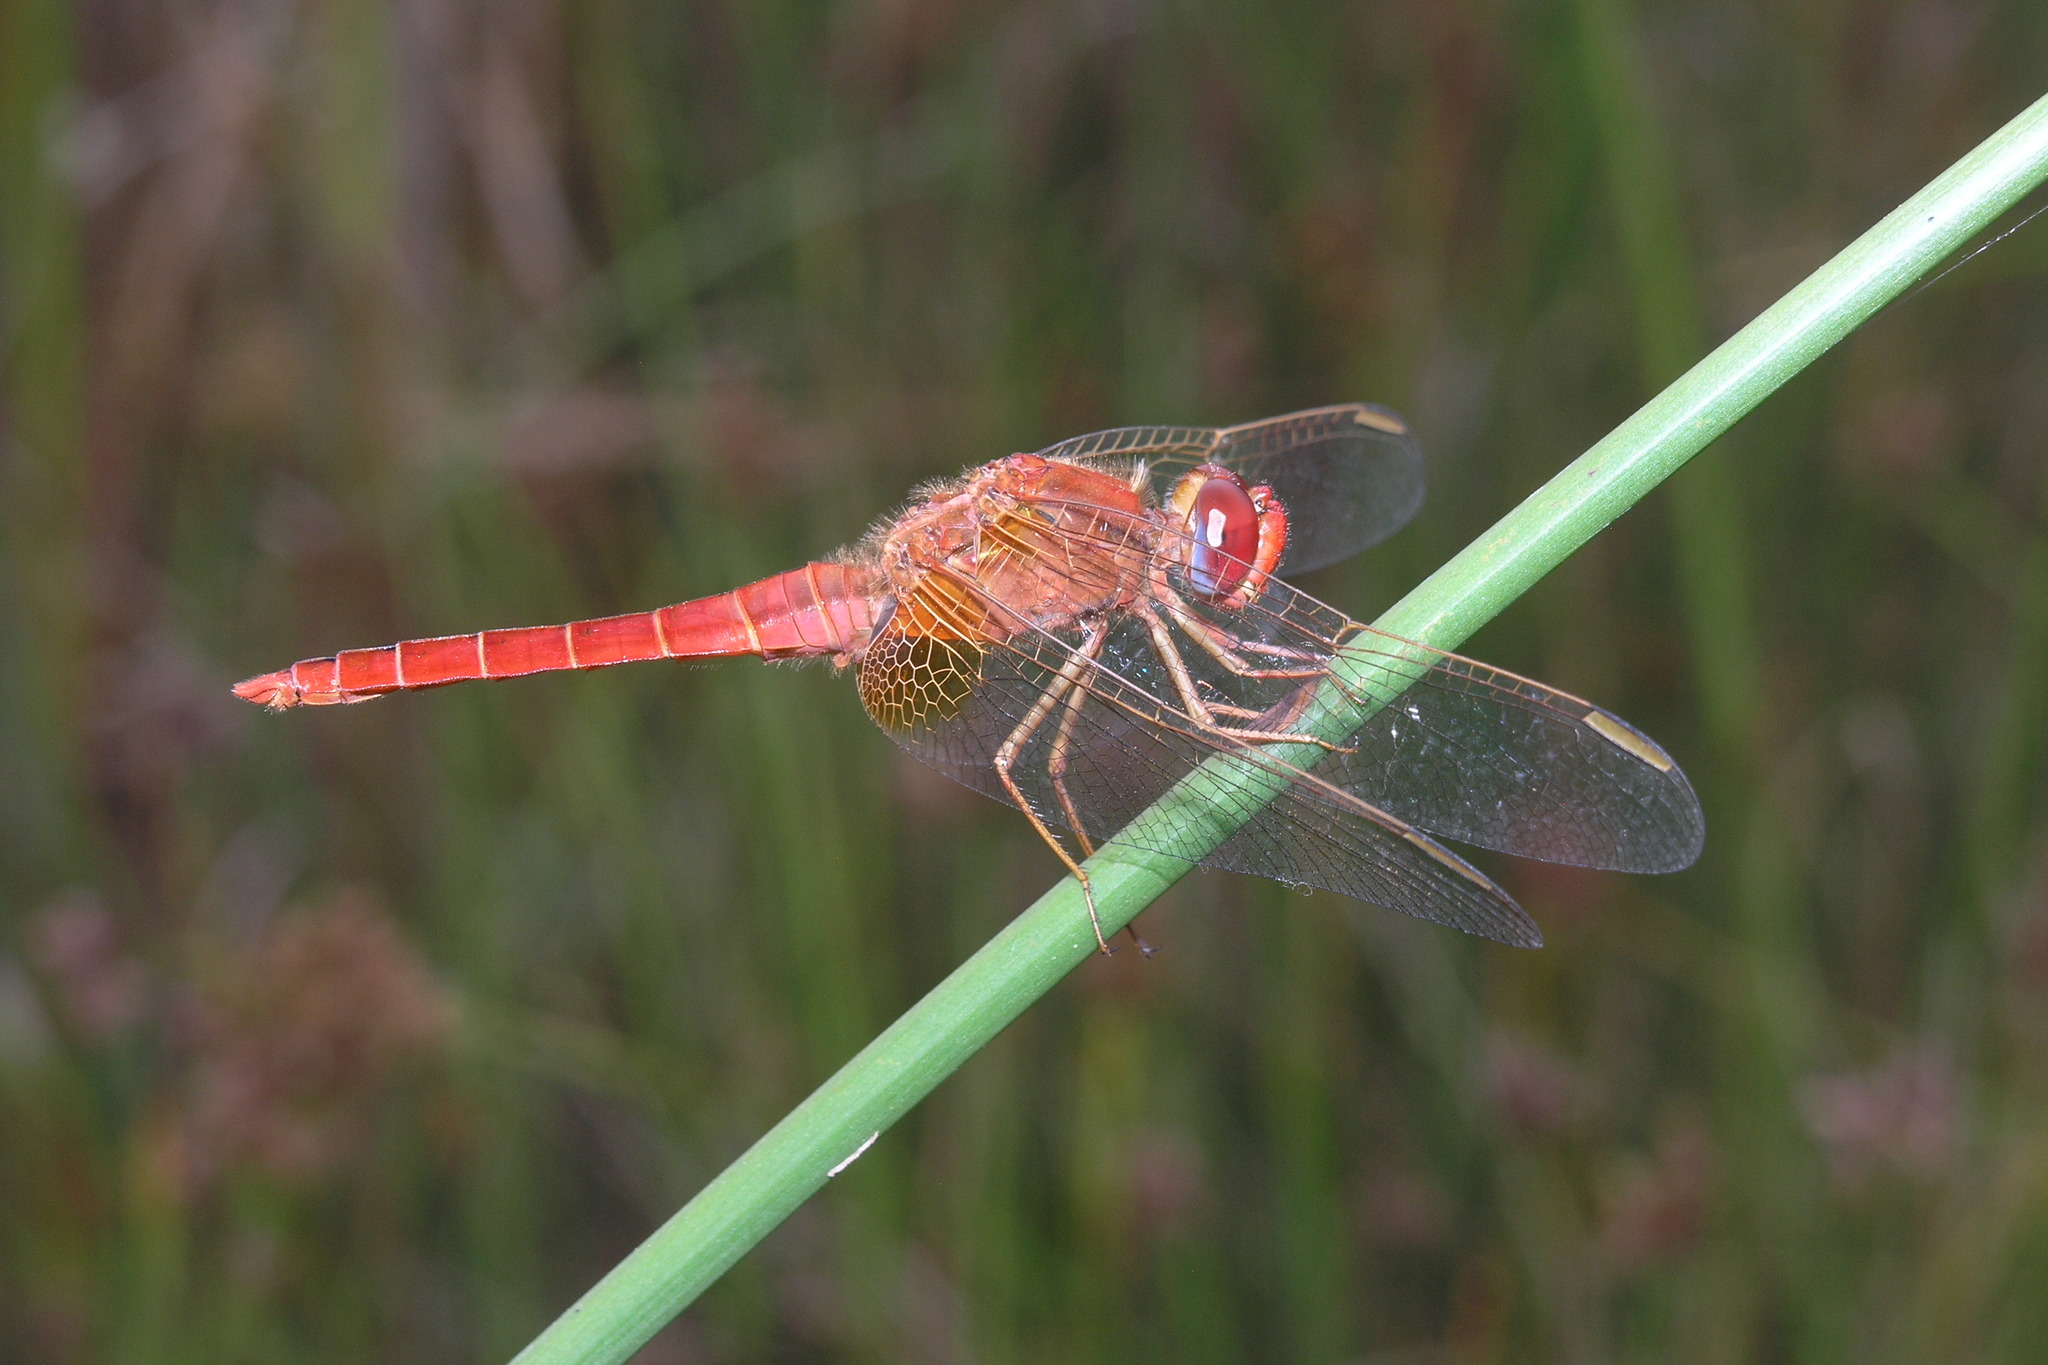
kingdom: Animalia
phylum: Arthropoda
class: Insecta
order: Odonata
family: Libellulidae
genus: Crocothemis
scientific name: Crocothemis erythraea
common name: Scarlet dragonfly
